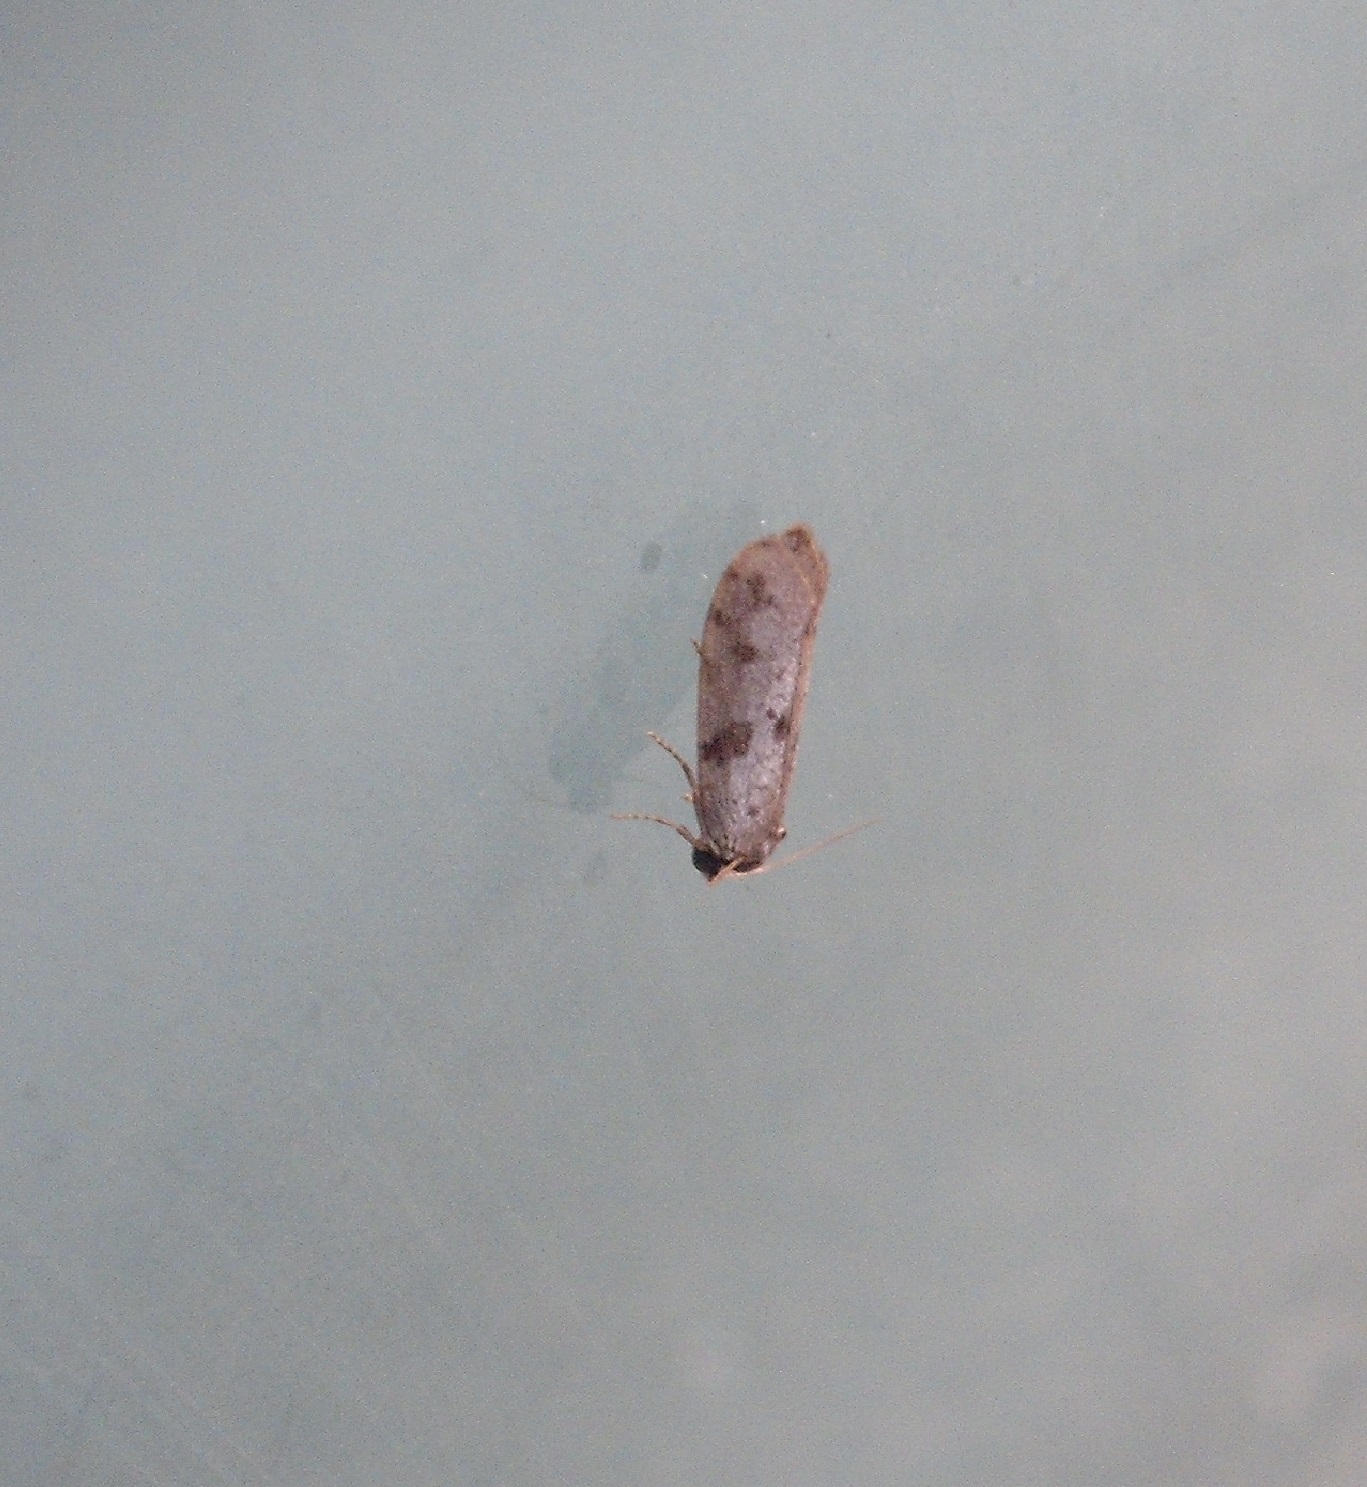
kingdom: Animalia
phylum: Arthropoda
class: Insecta
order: Lepidoptera
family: Psychidae
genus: Lepidoscia
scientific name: Lepidoscia protorna
